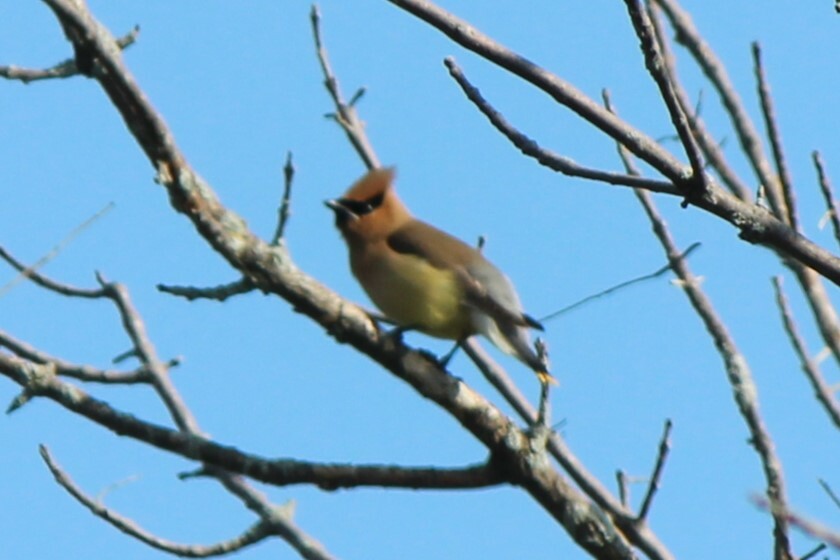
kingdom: Animalia
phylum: Chordata
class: Aves
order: Passeriformes
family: Bombycillidae
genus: Bombycilla
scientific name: Bombycilla cedrorum
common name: Cedar waxwing
